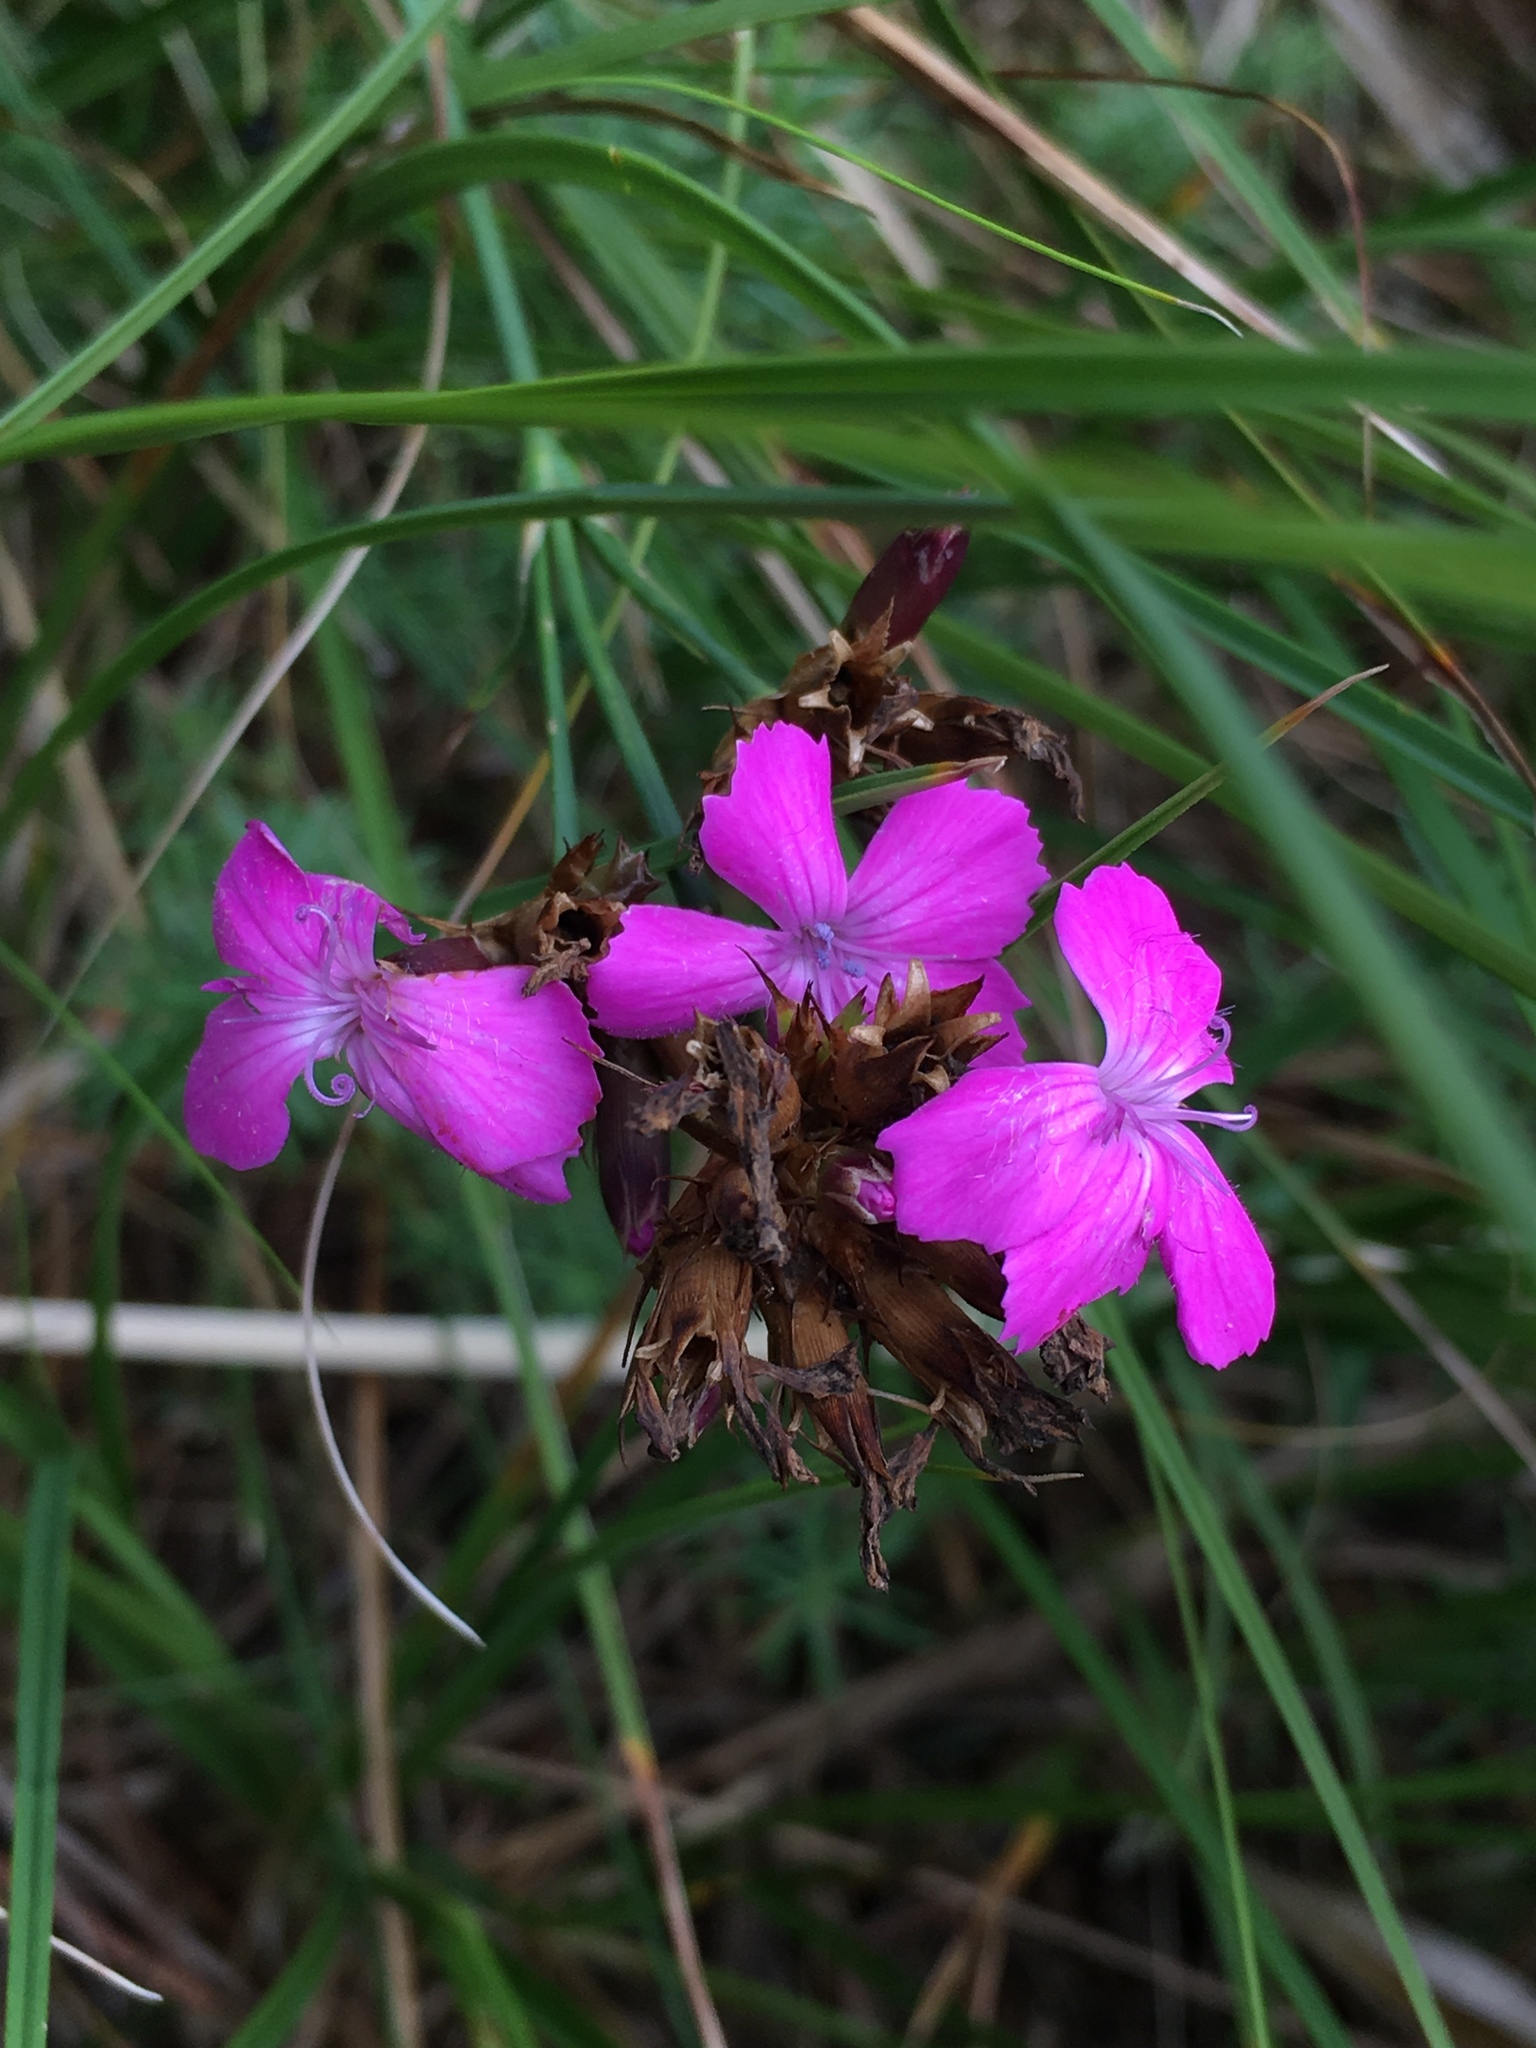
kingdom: Plantae
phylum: Tracheophyta
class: Magnoliopsida
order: Caryophyllales
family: Caryophyllaceae
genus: Dianthus
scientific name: Dianthus carthusianorum
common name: Carthusian pink
